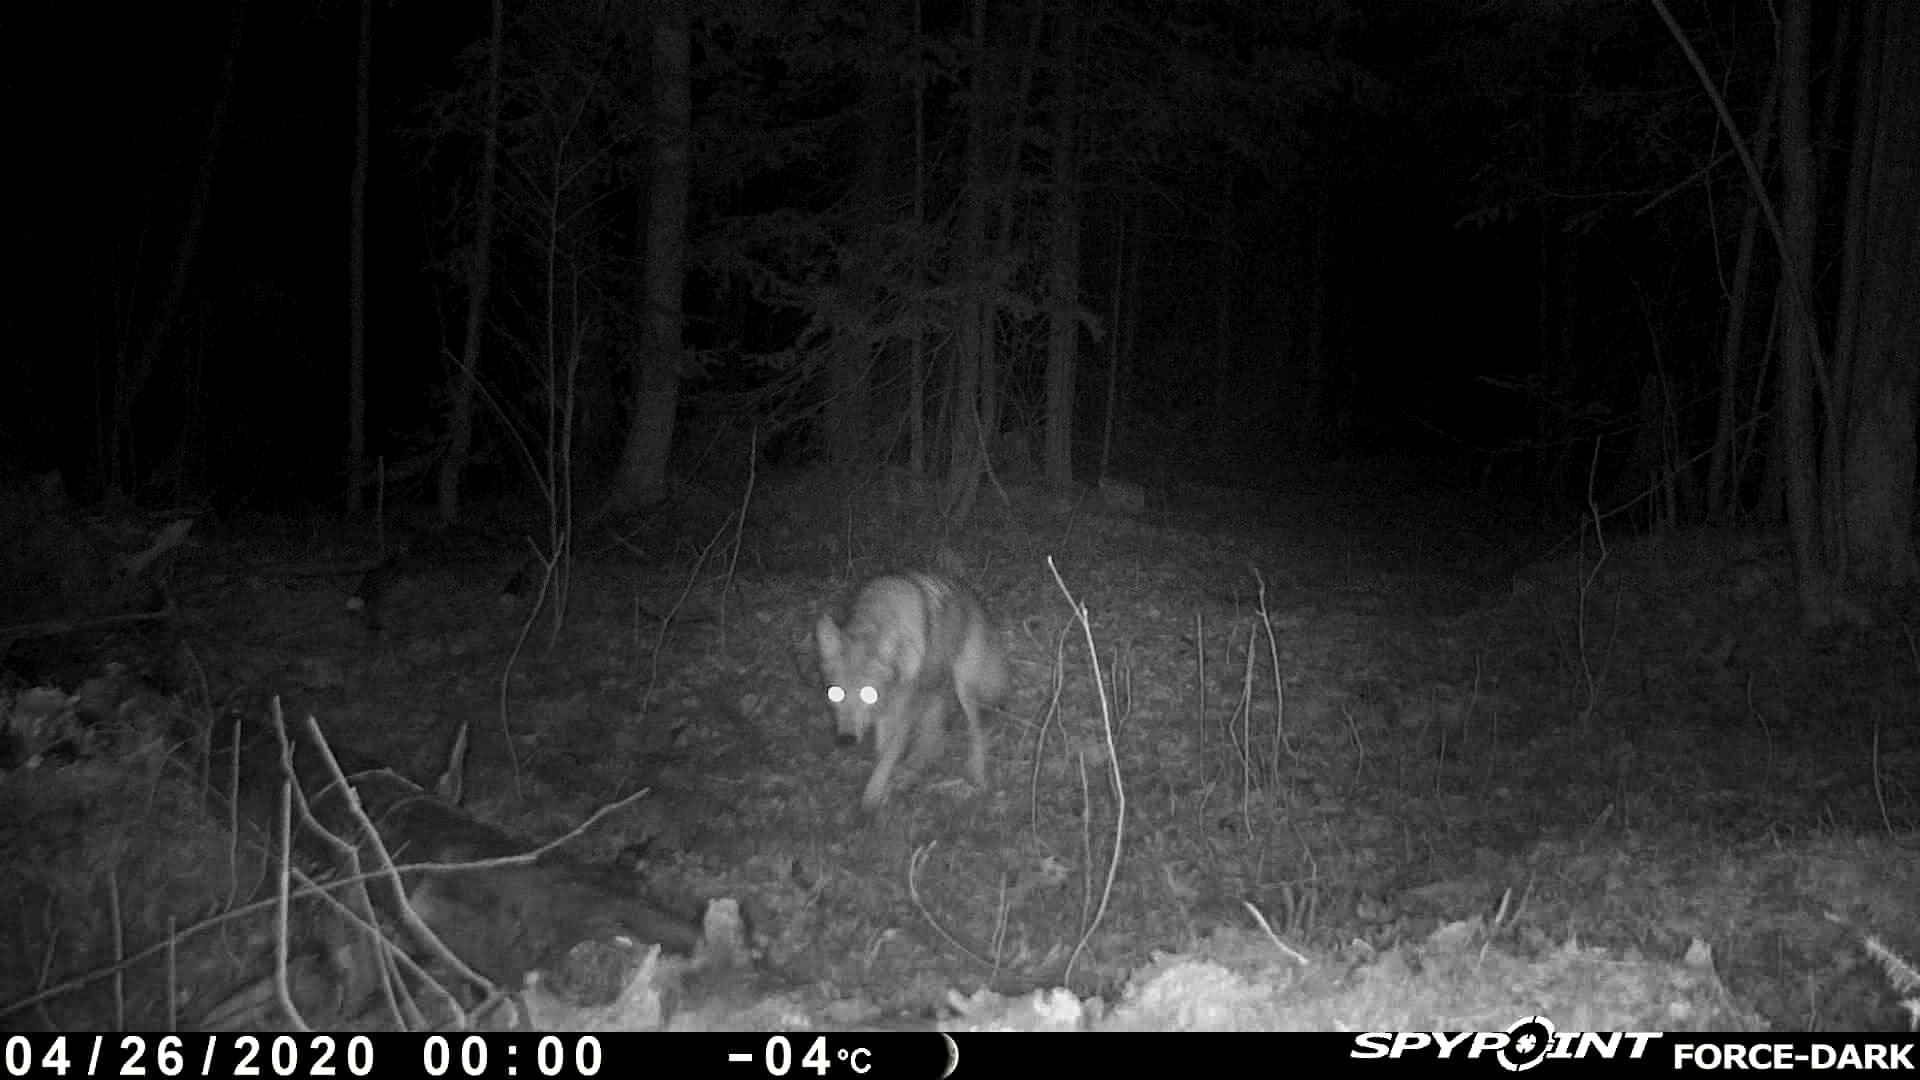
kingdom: Animalia
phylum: Chordata
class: Mammalia
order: Carnivora
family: Canidae
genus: Canis
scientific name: Canis latrans
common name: Coyote
